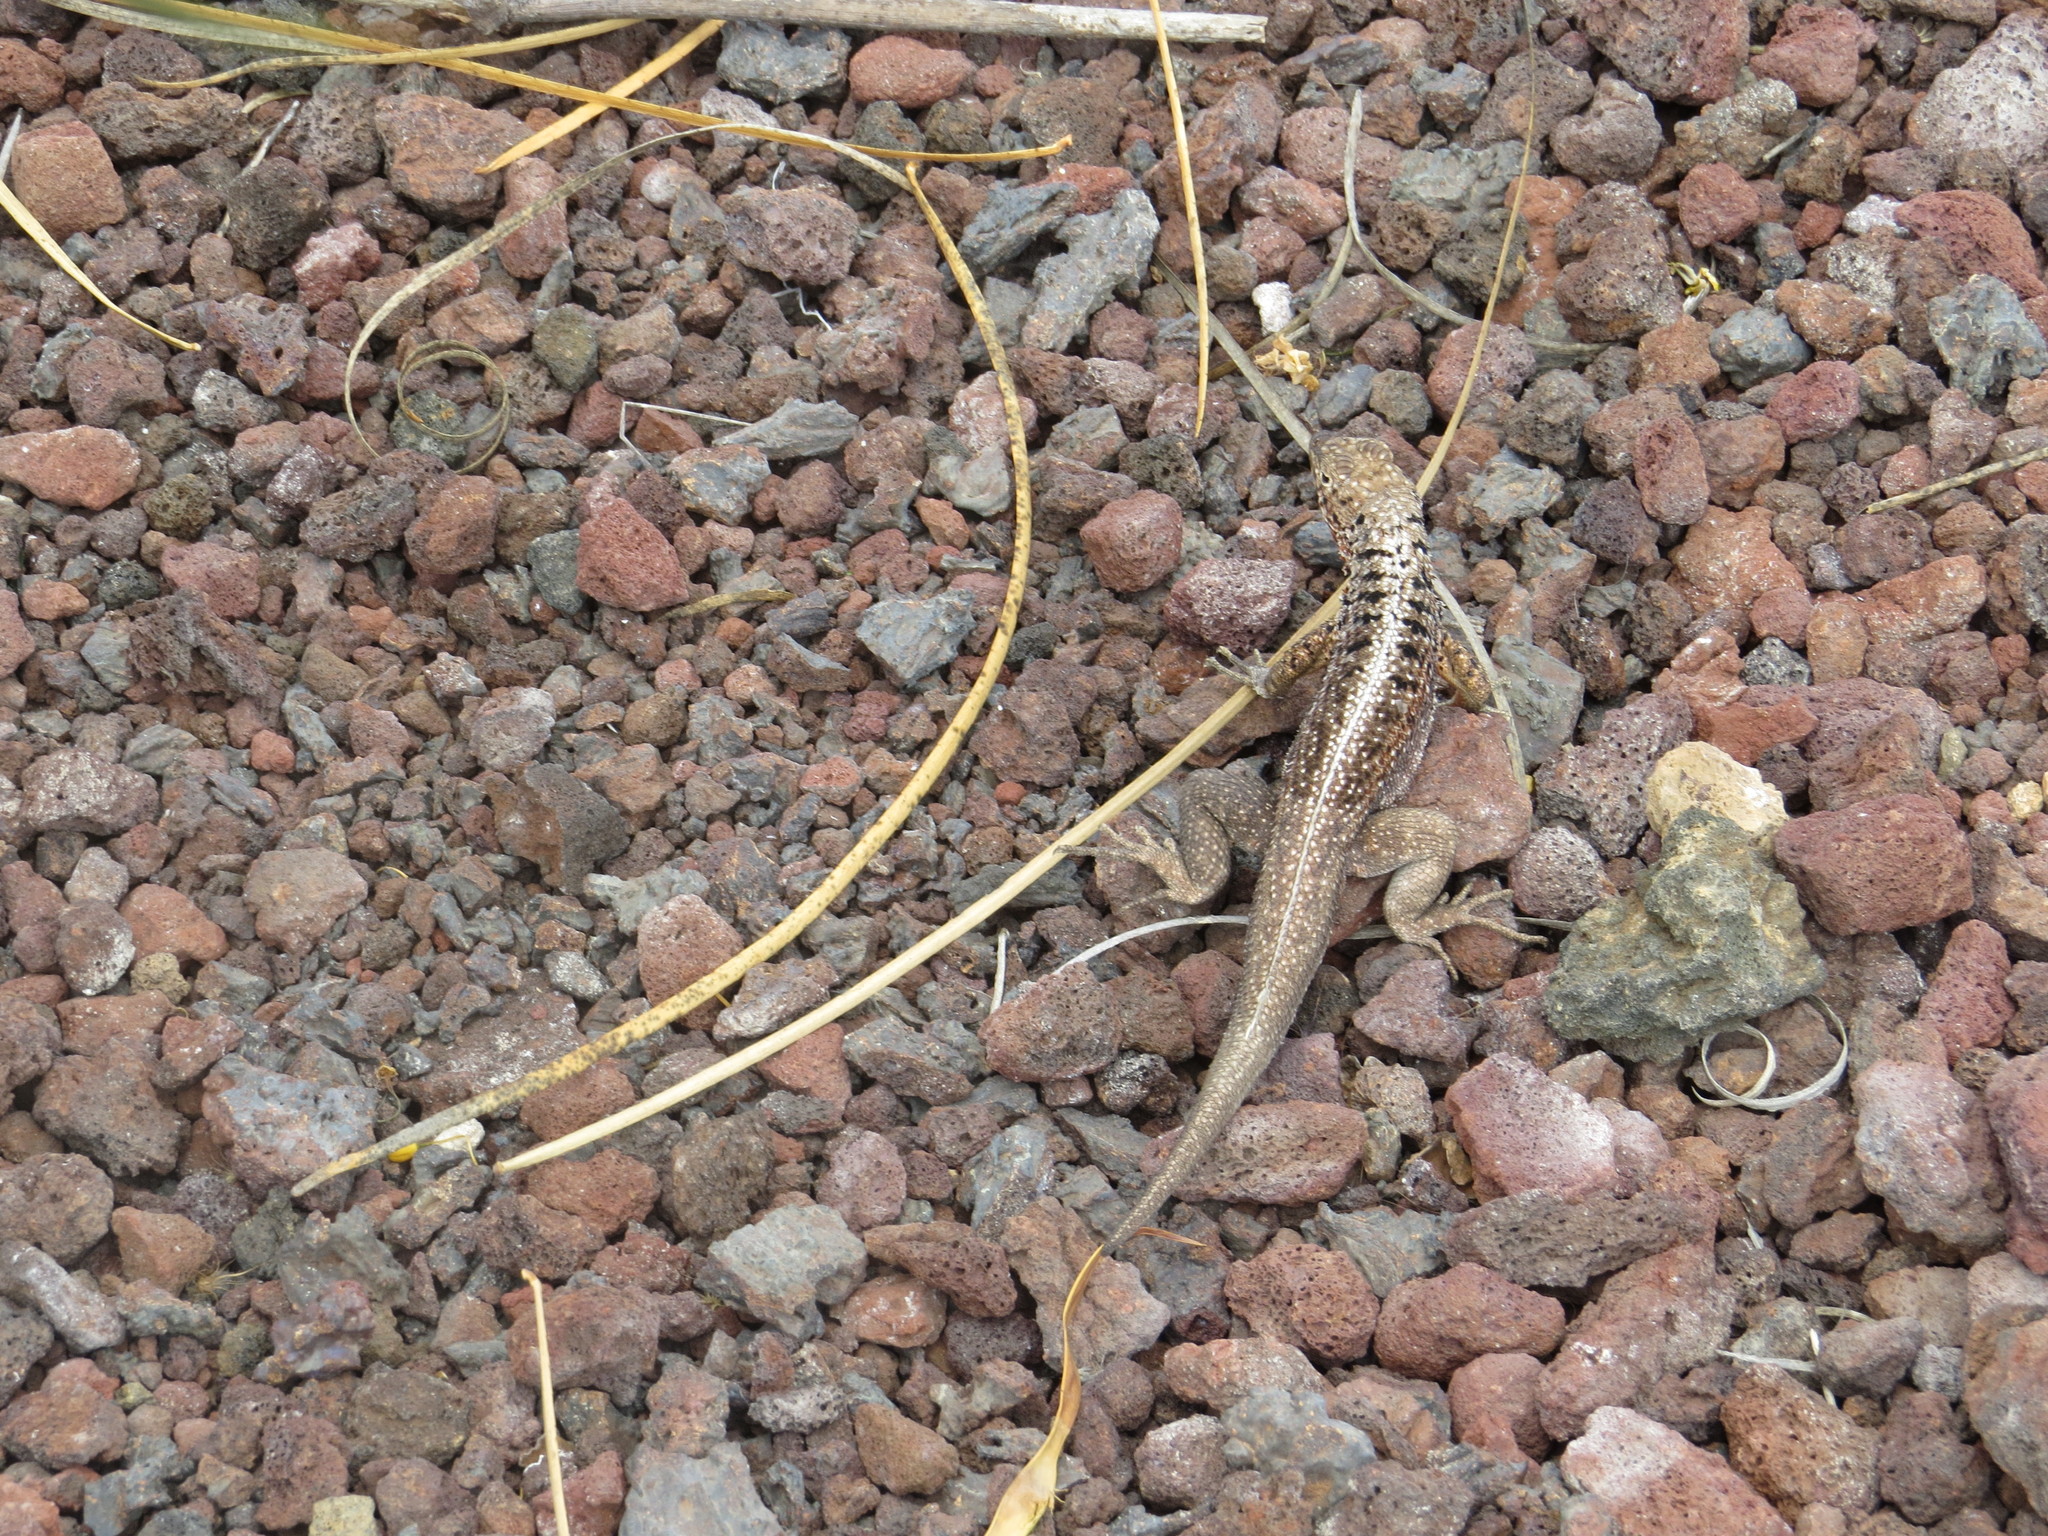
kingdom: Animalia
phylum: Chordata
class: Squamata
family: Tropiduridae
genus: Microlophus
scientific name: Microlophus indefatigabilis
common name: Galapagos lava lizard
